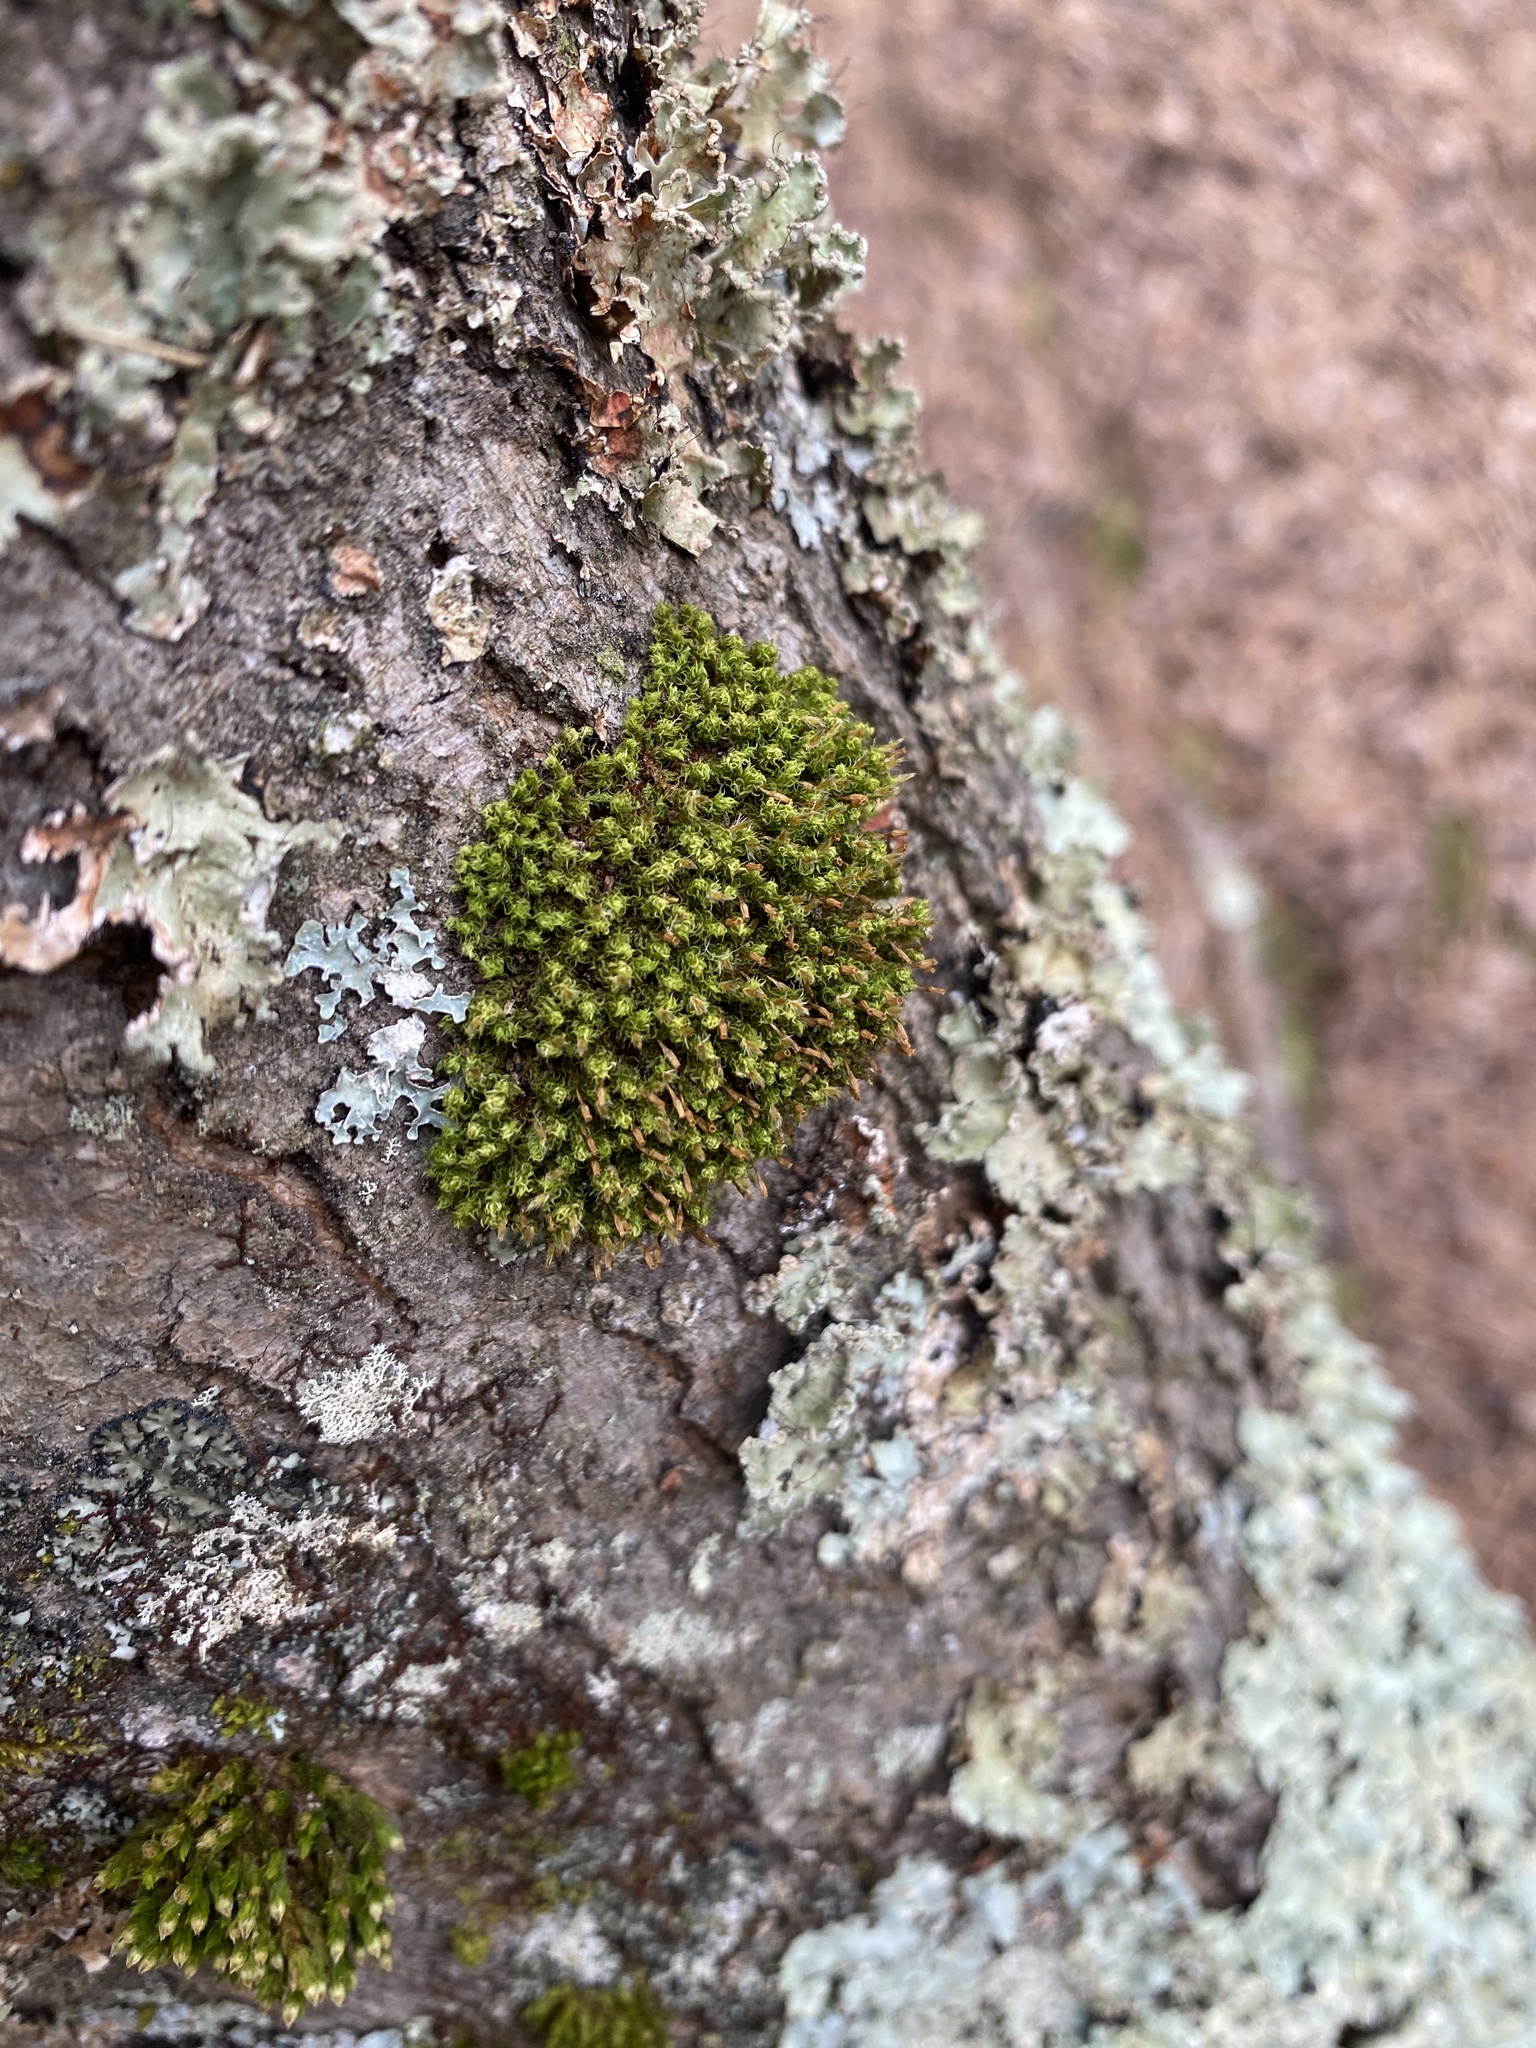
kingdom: Plantae
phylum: Bryophyta
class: Bryopsida
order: Orthotrichales
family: Orthotrichaceae
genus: Ulota
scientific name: Ulota crispa
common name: Crisped pincushion moss
